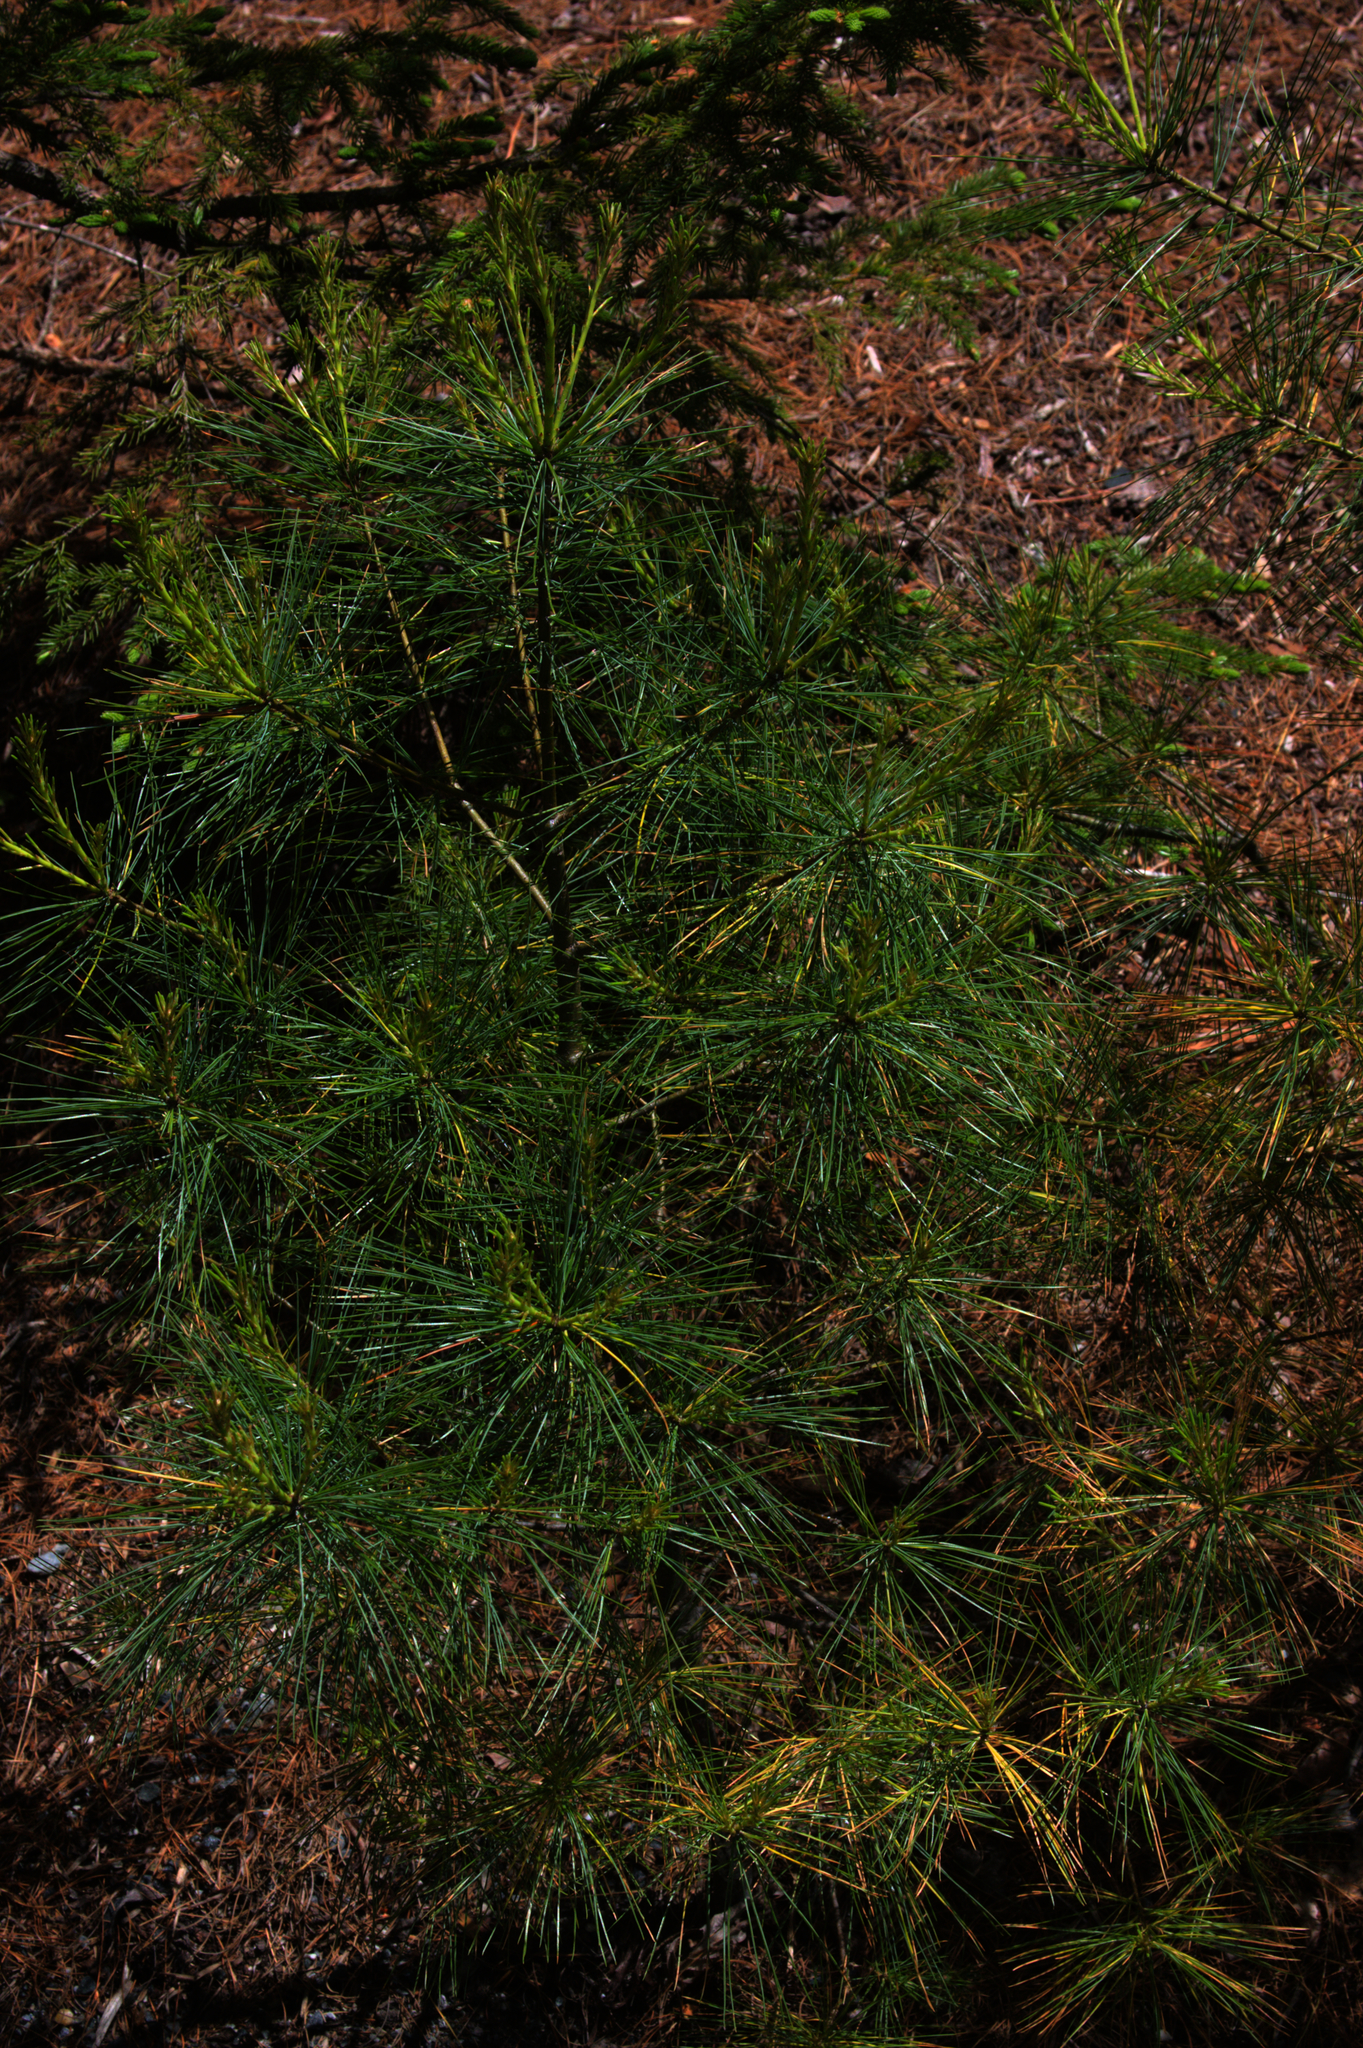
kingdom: Plantae
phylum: Tracheophyta
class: Pinopsida
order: Pinales
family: Pinaceae
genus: Pinus
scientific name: Pinus strobus
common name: Weymouth pine
